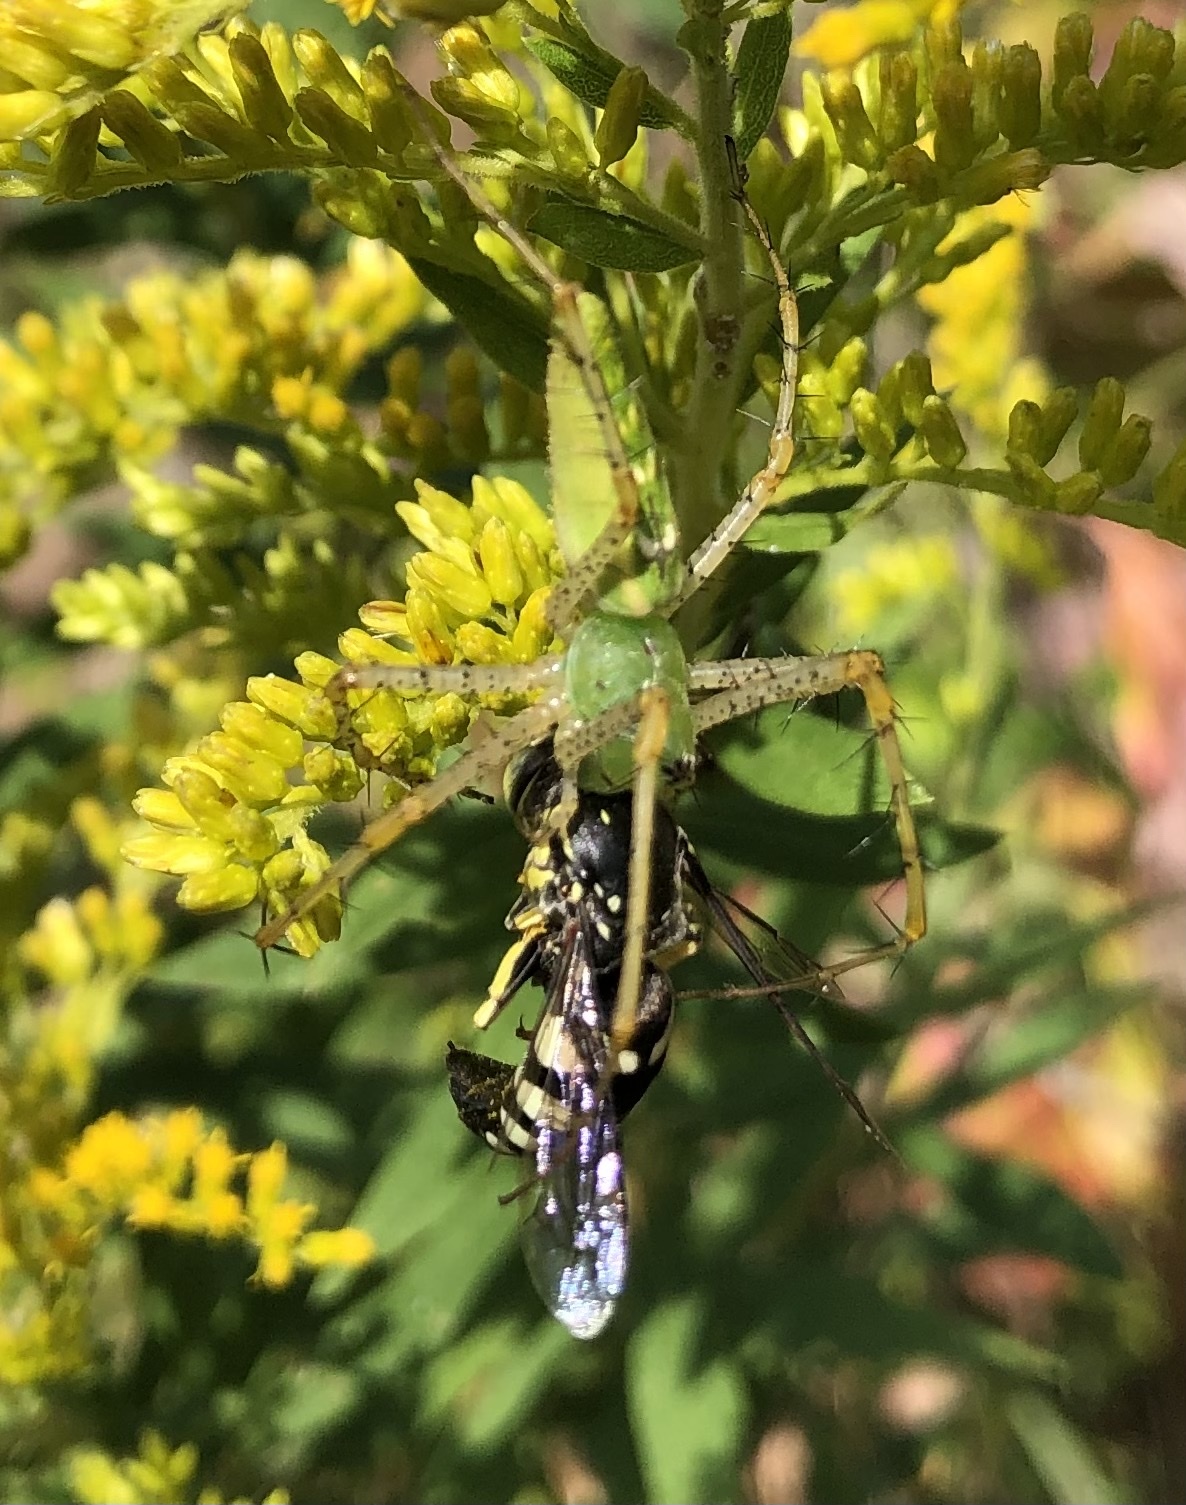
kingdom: Animalia
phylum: Arthropoda
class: Arachnida
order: Araneae
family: Oxyopidae
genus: Peucetia
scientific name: Peucetia viridans
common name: Lynx spiders
